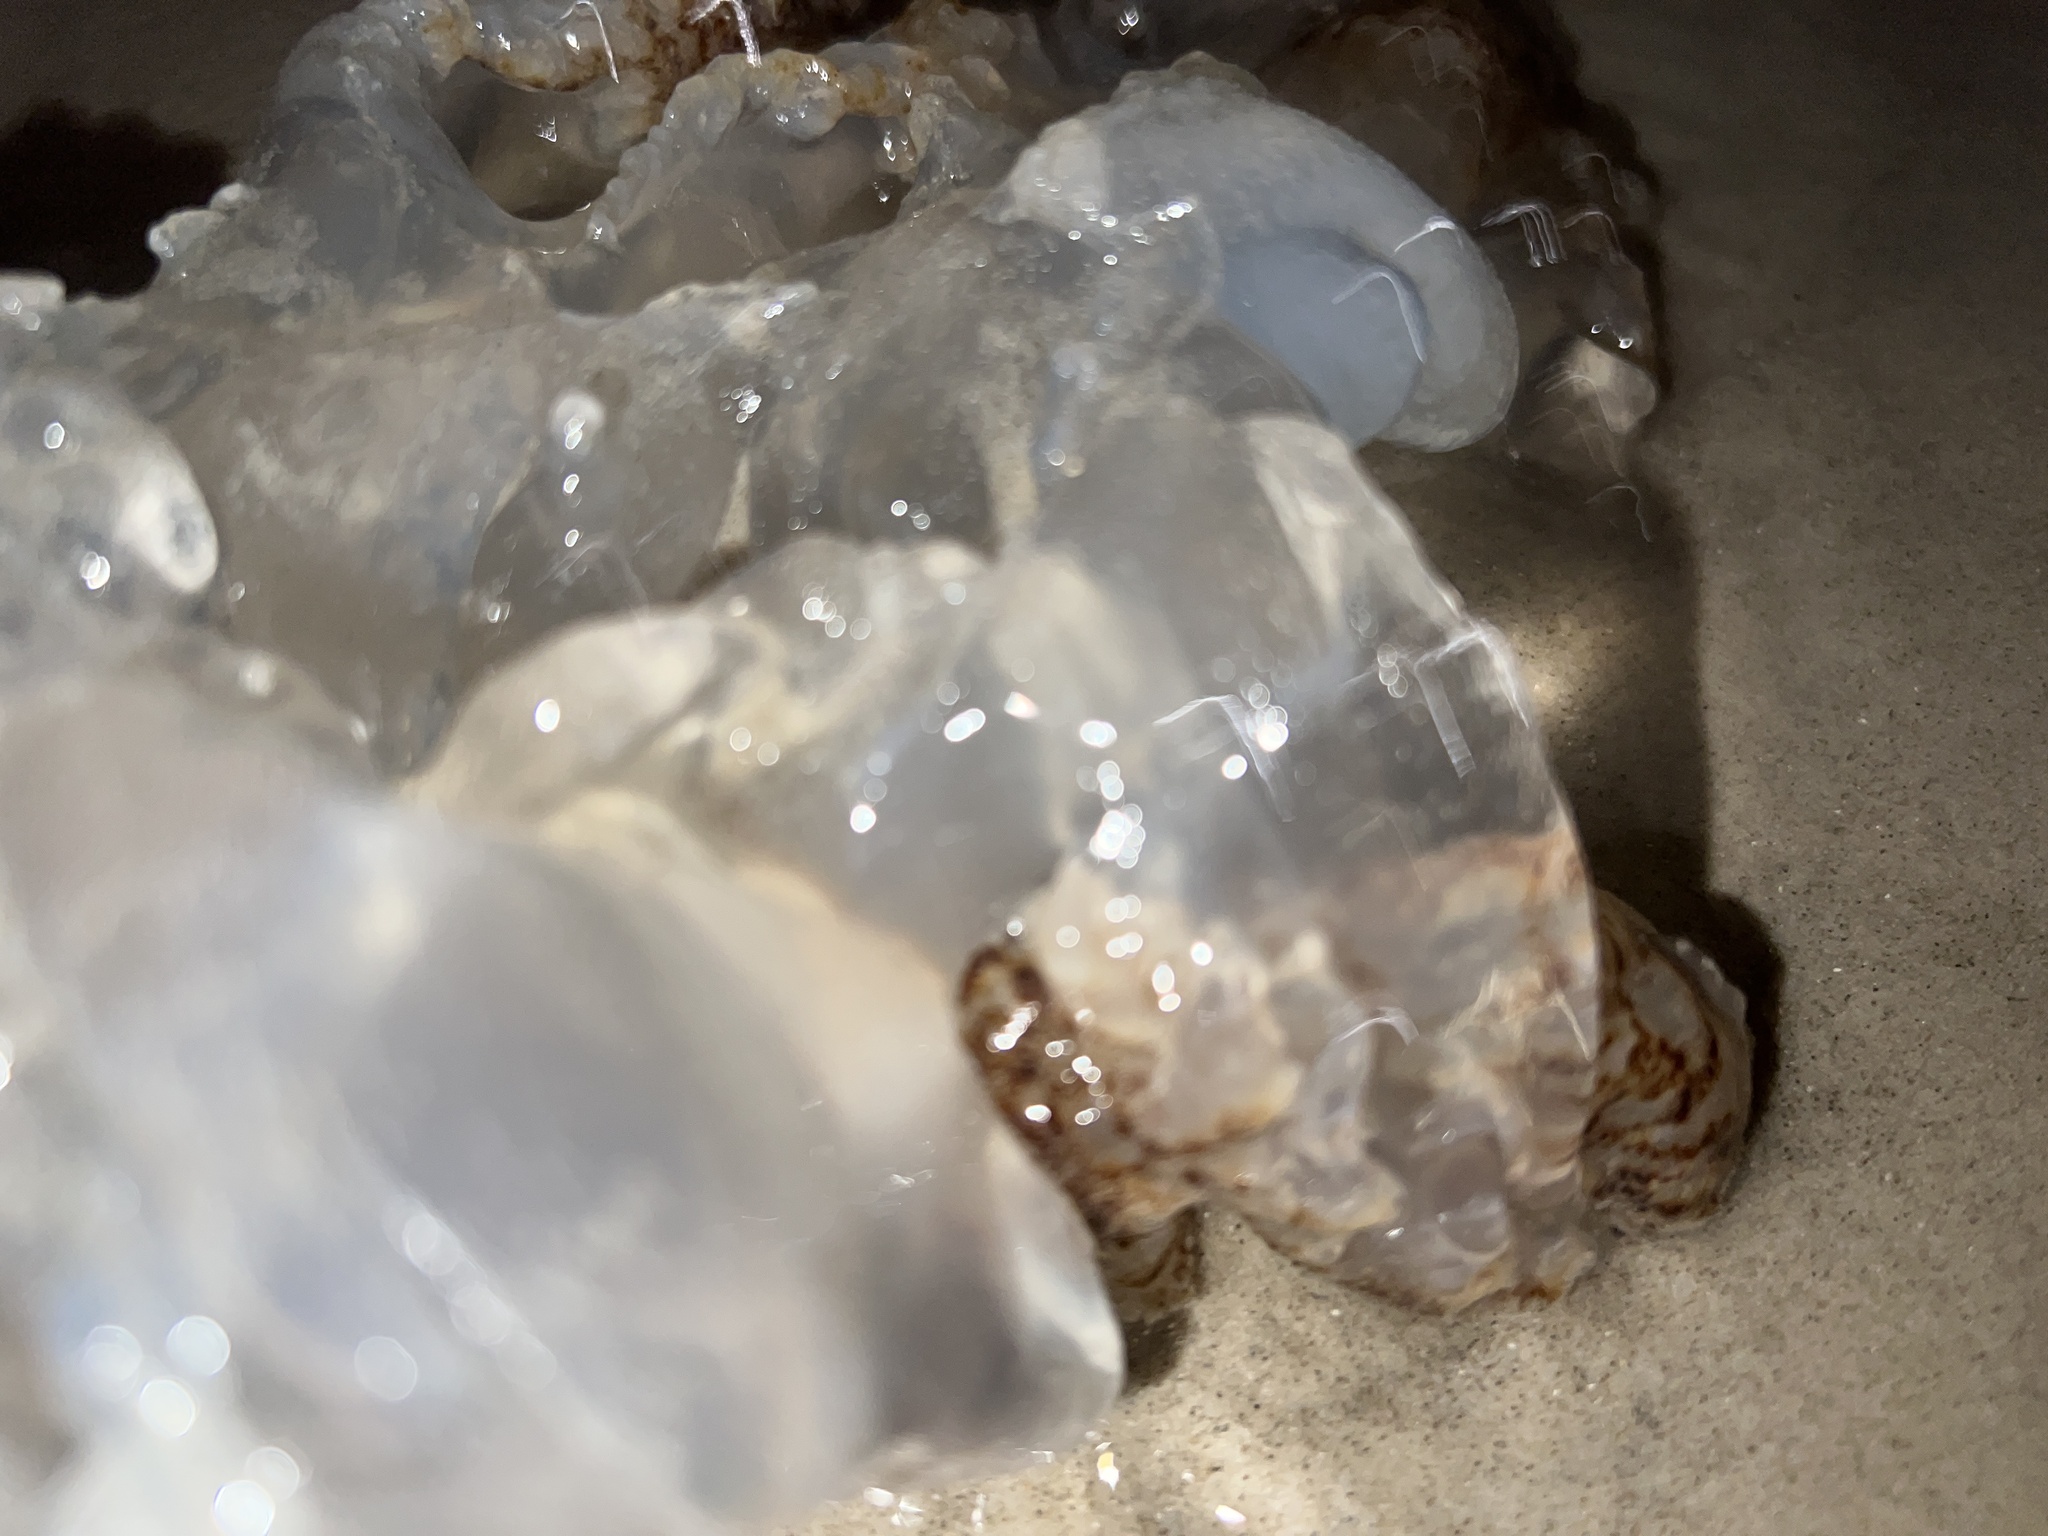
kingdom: Animalia
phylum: Cnidaria
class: Scyphozoa
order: Rhizostomeae
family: Rhizostomatidae
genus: Rhopilema
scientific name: Rhopilema verrilli
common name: Mushroom cap jellyfish
